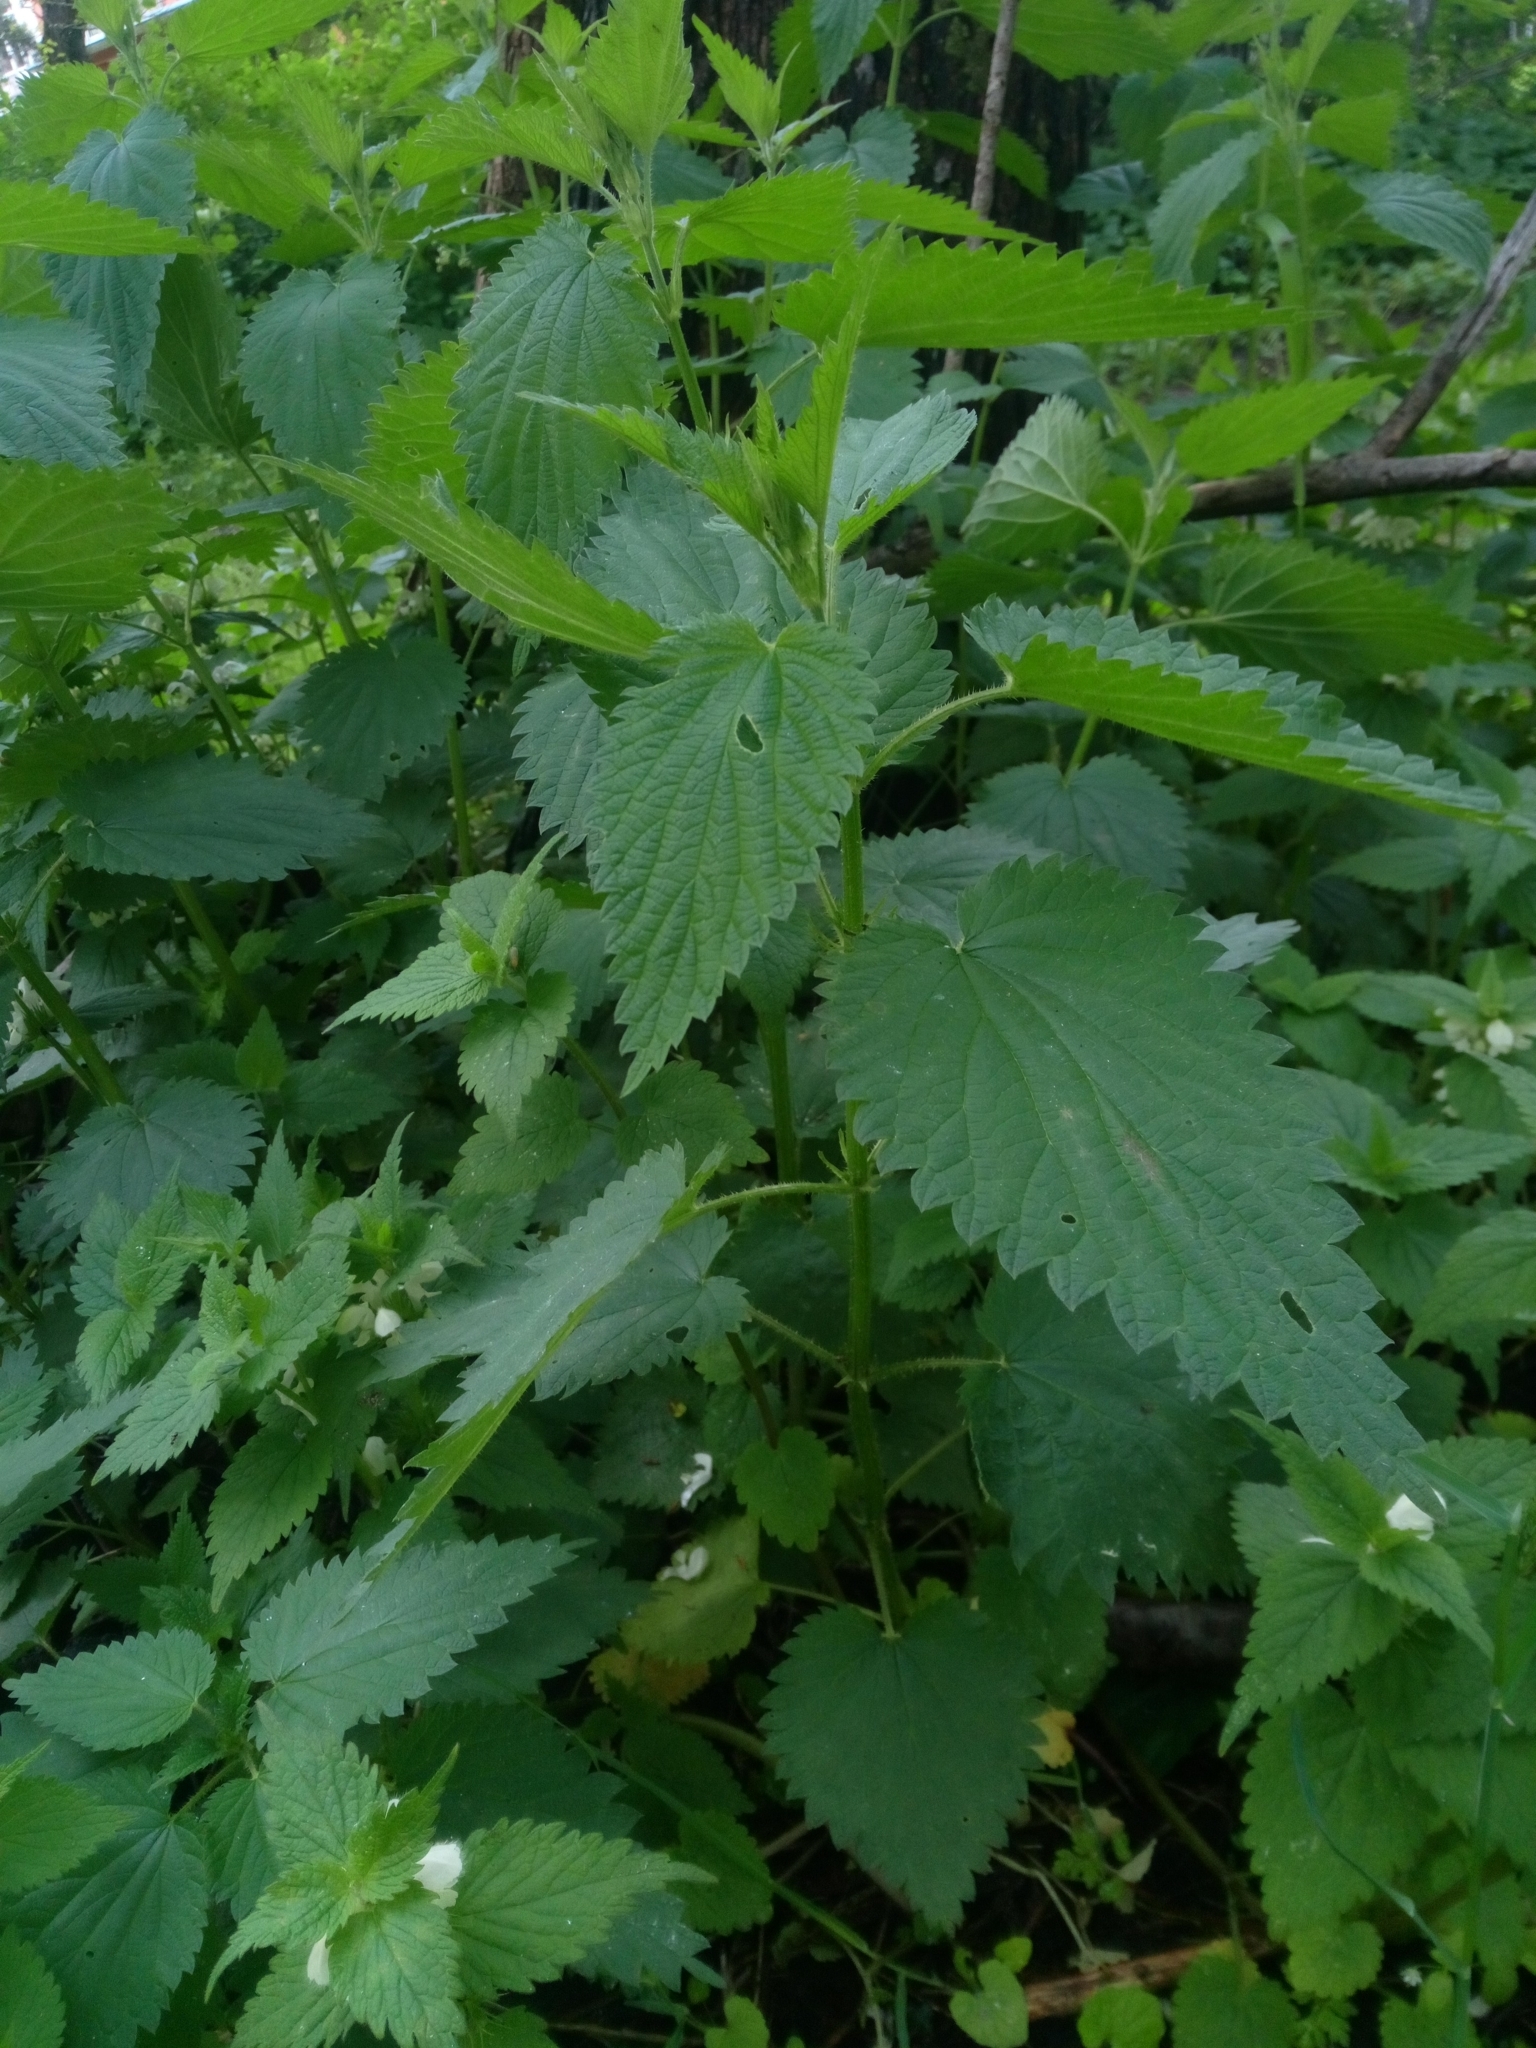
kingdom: Plantae
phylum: Tracheophyta
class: Magnoliopsida
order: Rosales
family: Urticaceae
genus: Urtica
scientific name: Urtica dioica
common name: Common nettle
